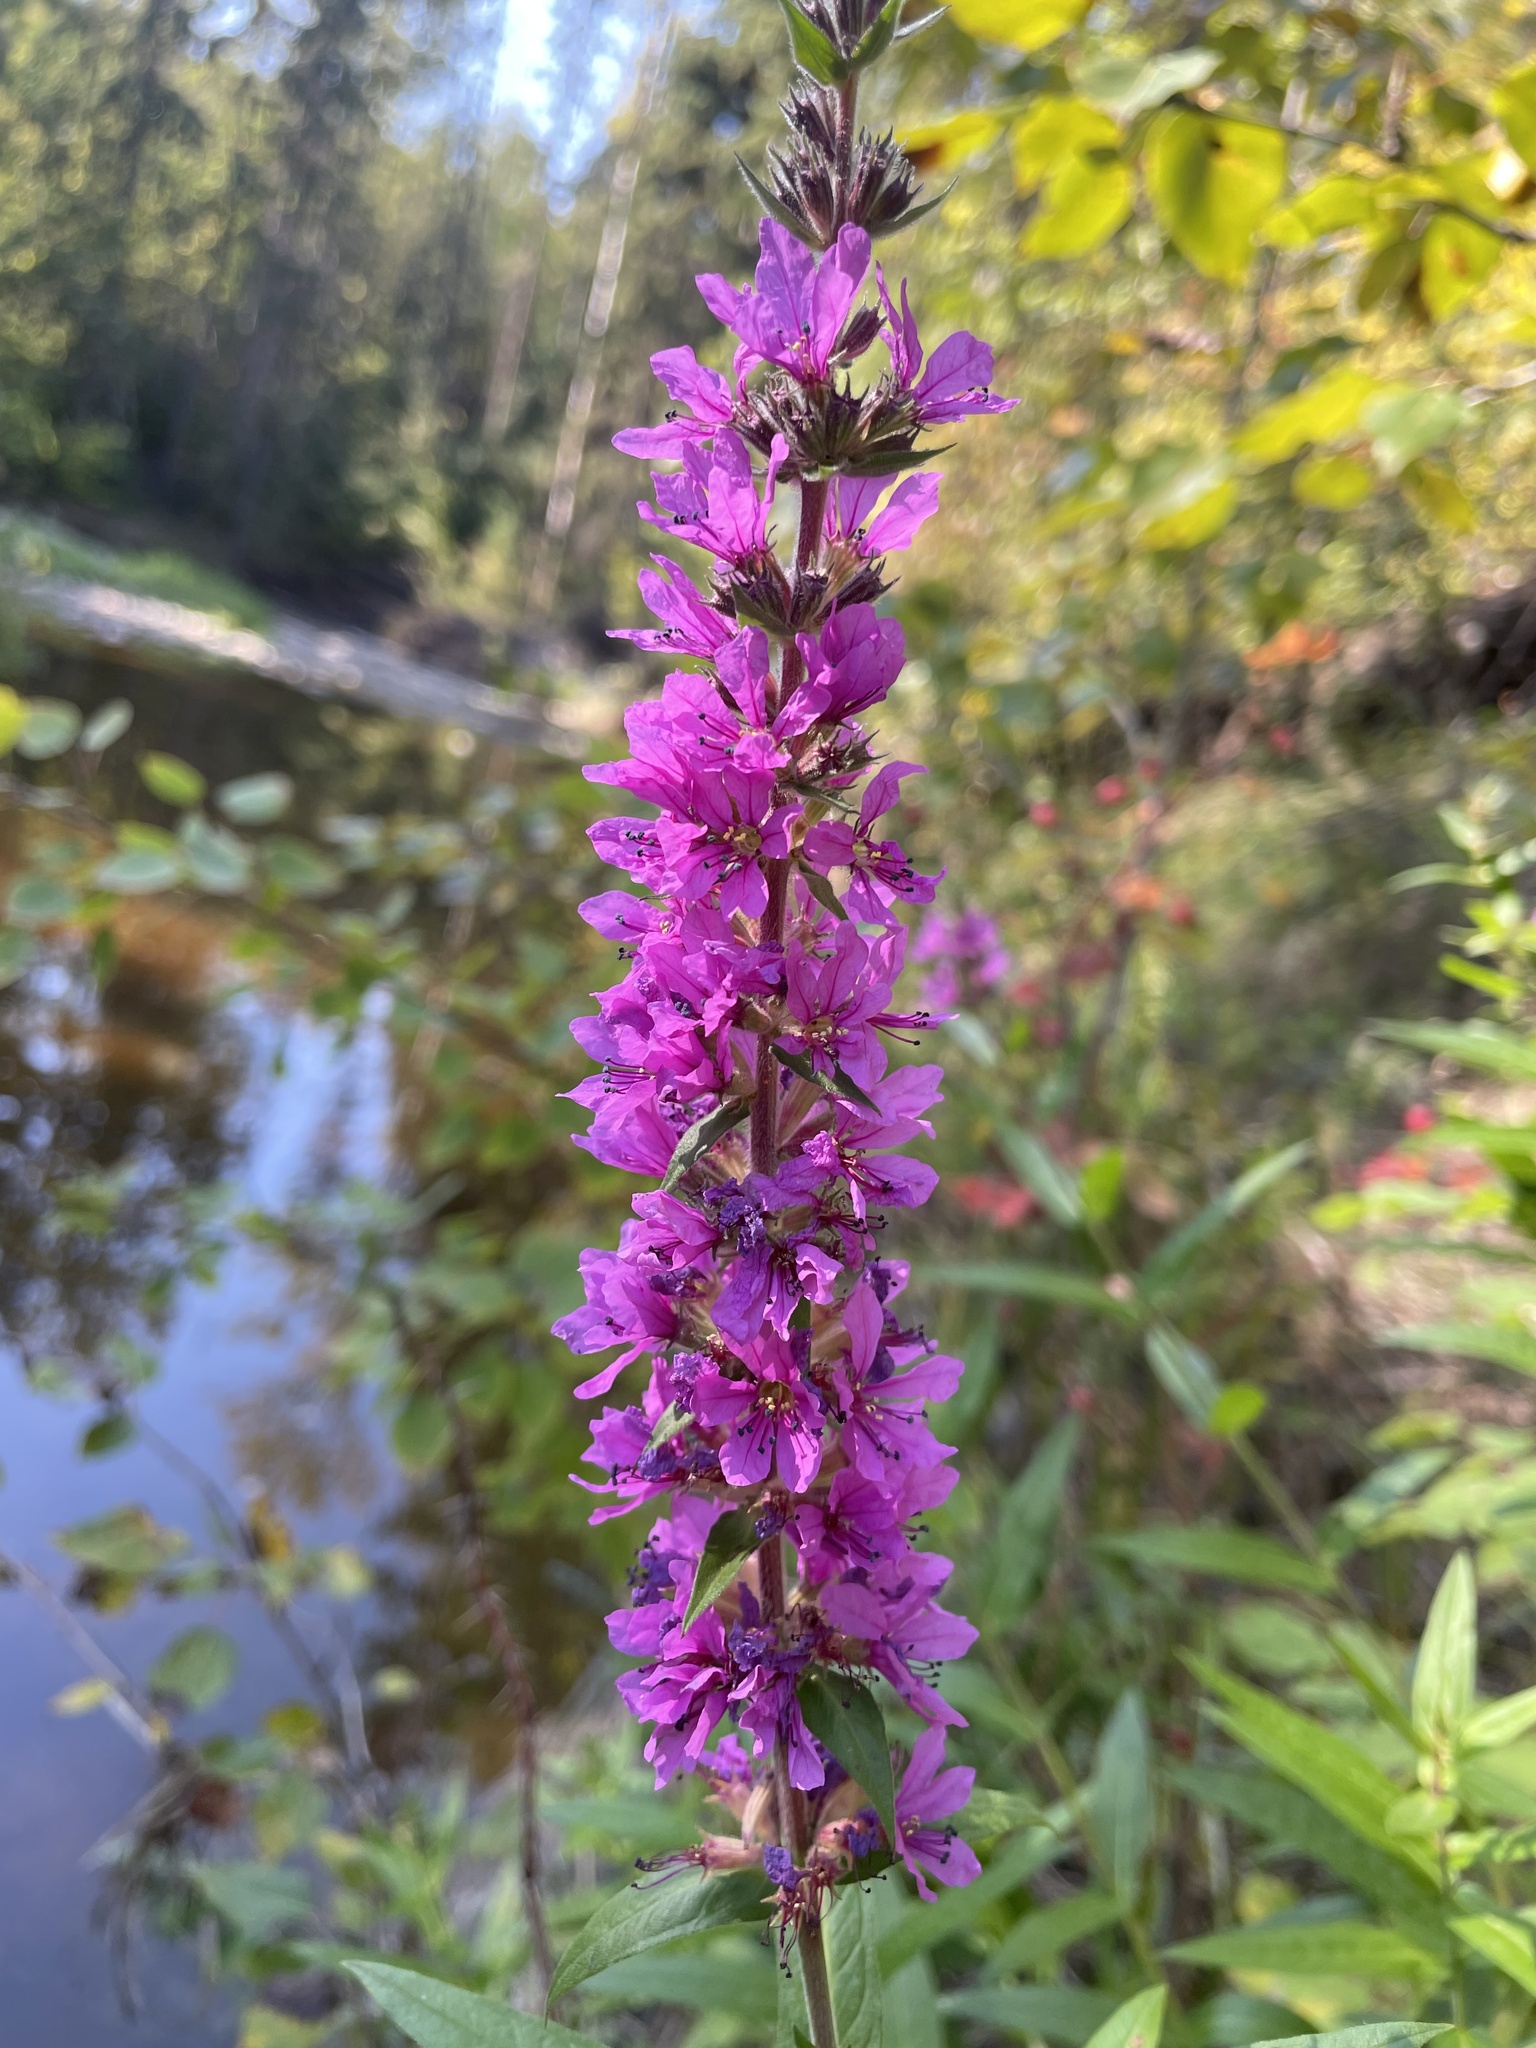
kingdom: Plantae
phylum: Tracheophyta
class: Magnoliopsida
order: Myrtales
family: Lythraceae
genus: Lythrum
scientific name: Lythrum salicaria
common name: Purple loosestrife
